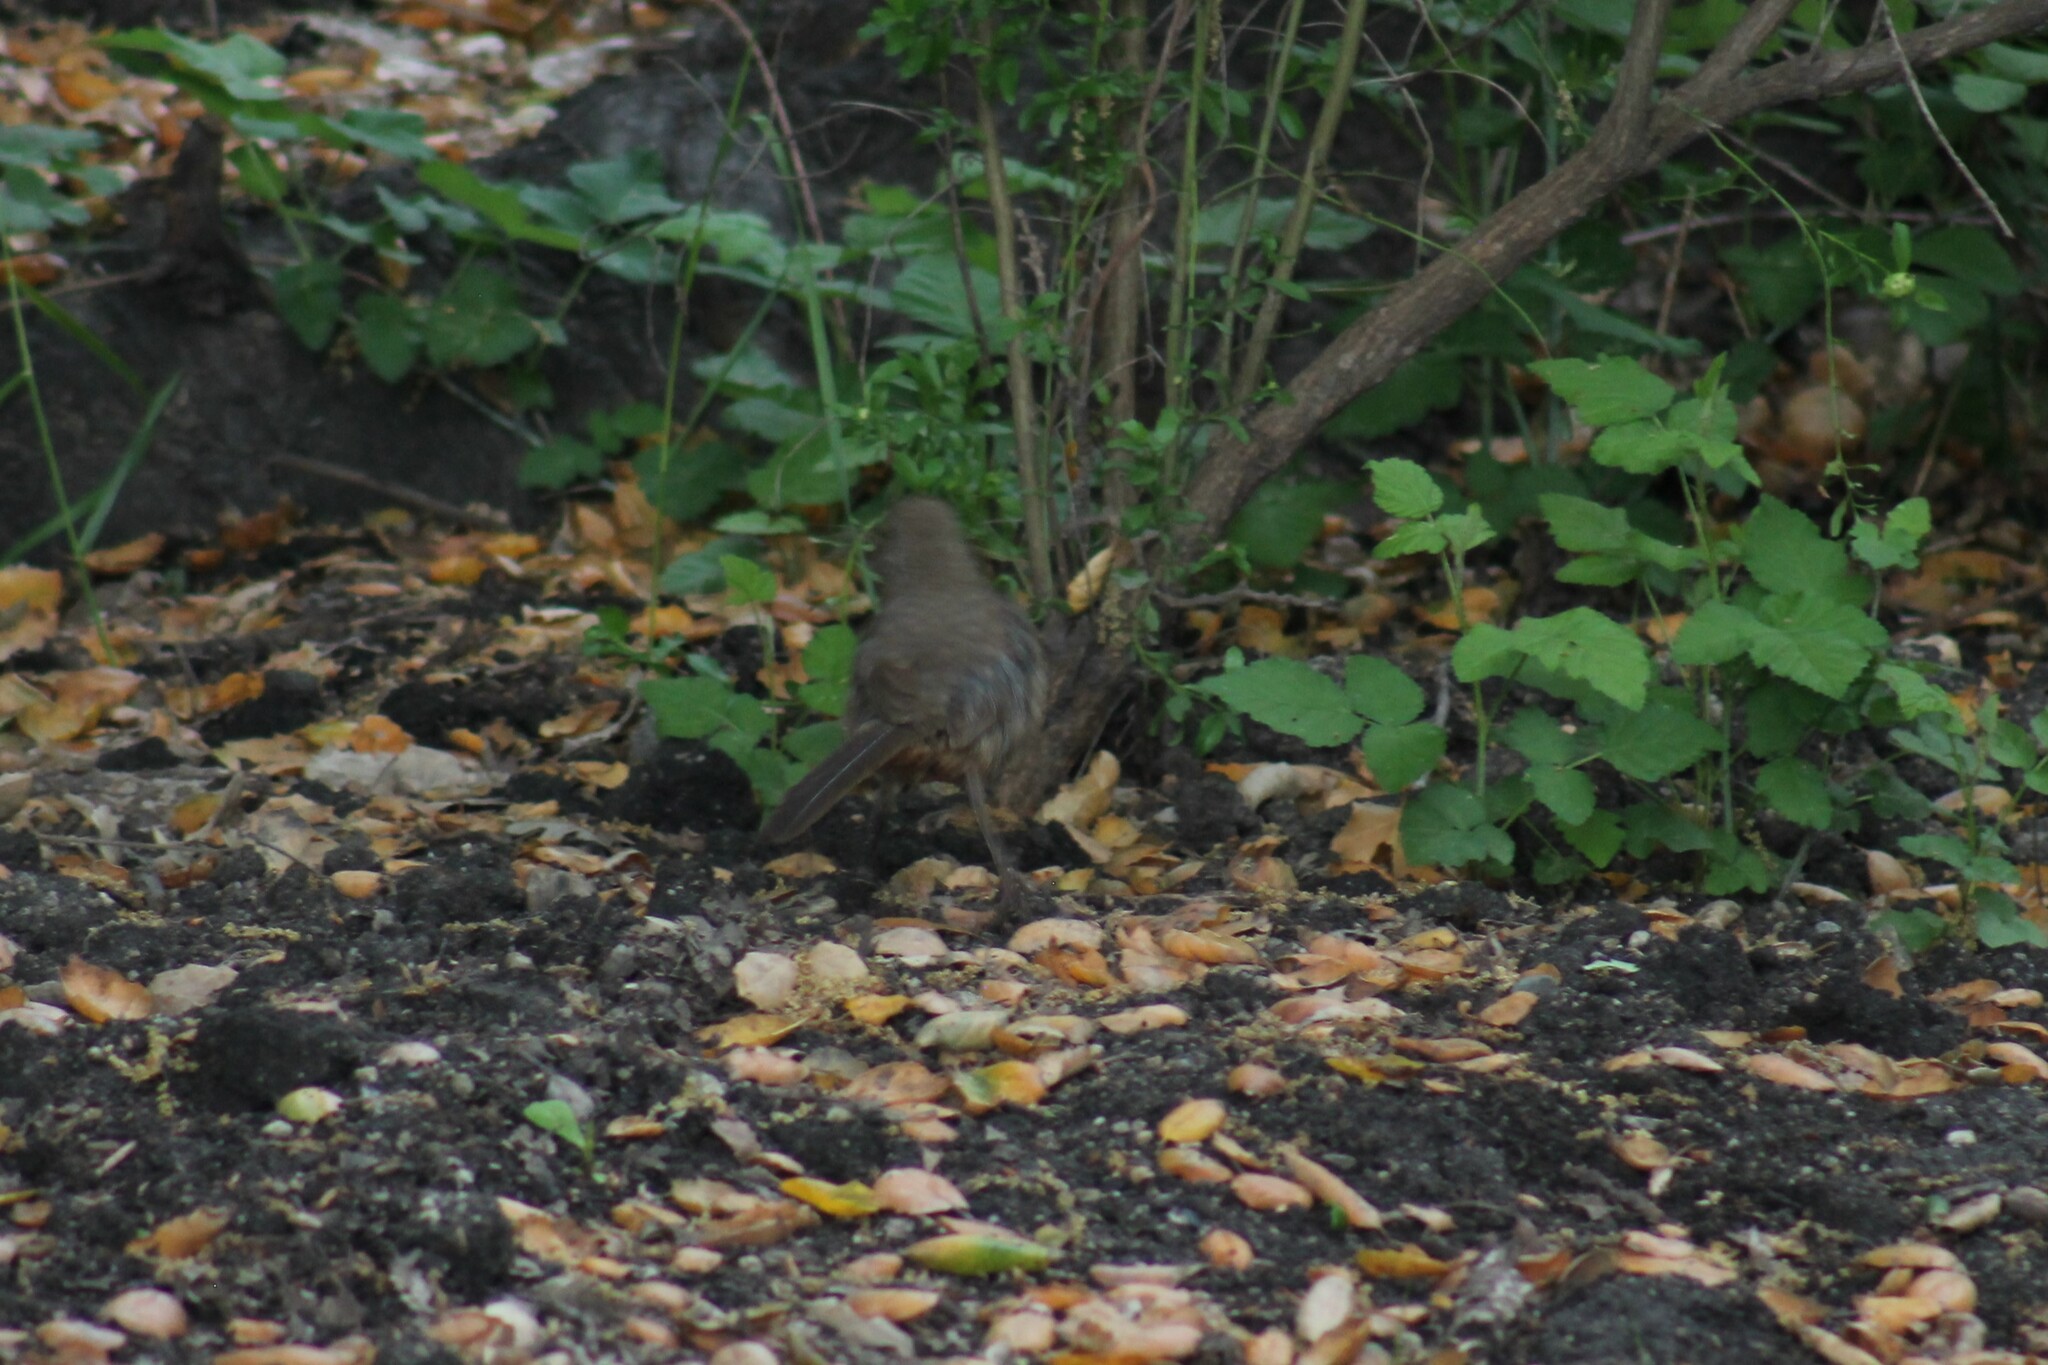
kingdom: Animalia
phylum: Chordata
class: Aves
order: Passeriformes
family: Mimidae
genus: Toxostoma
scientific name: Toxostoma redivivum
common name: California thrasher
